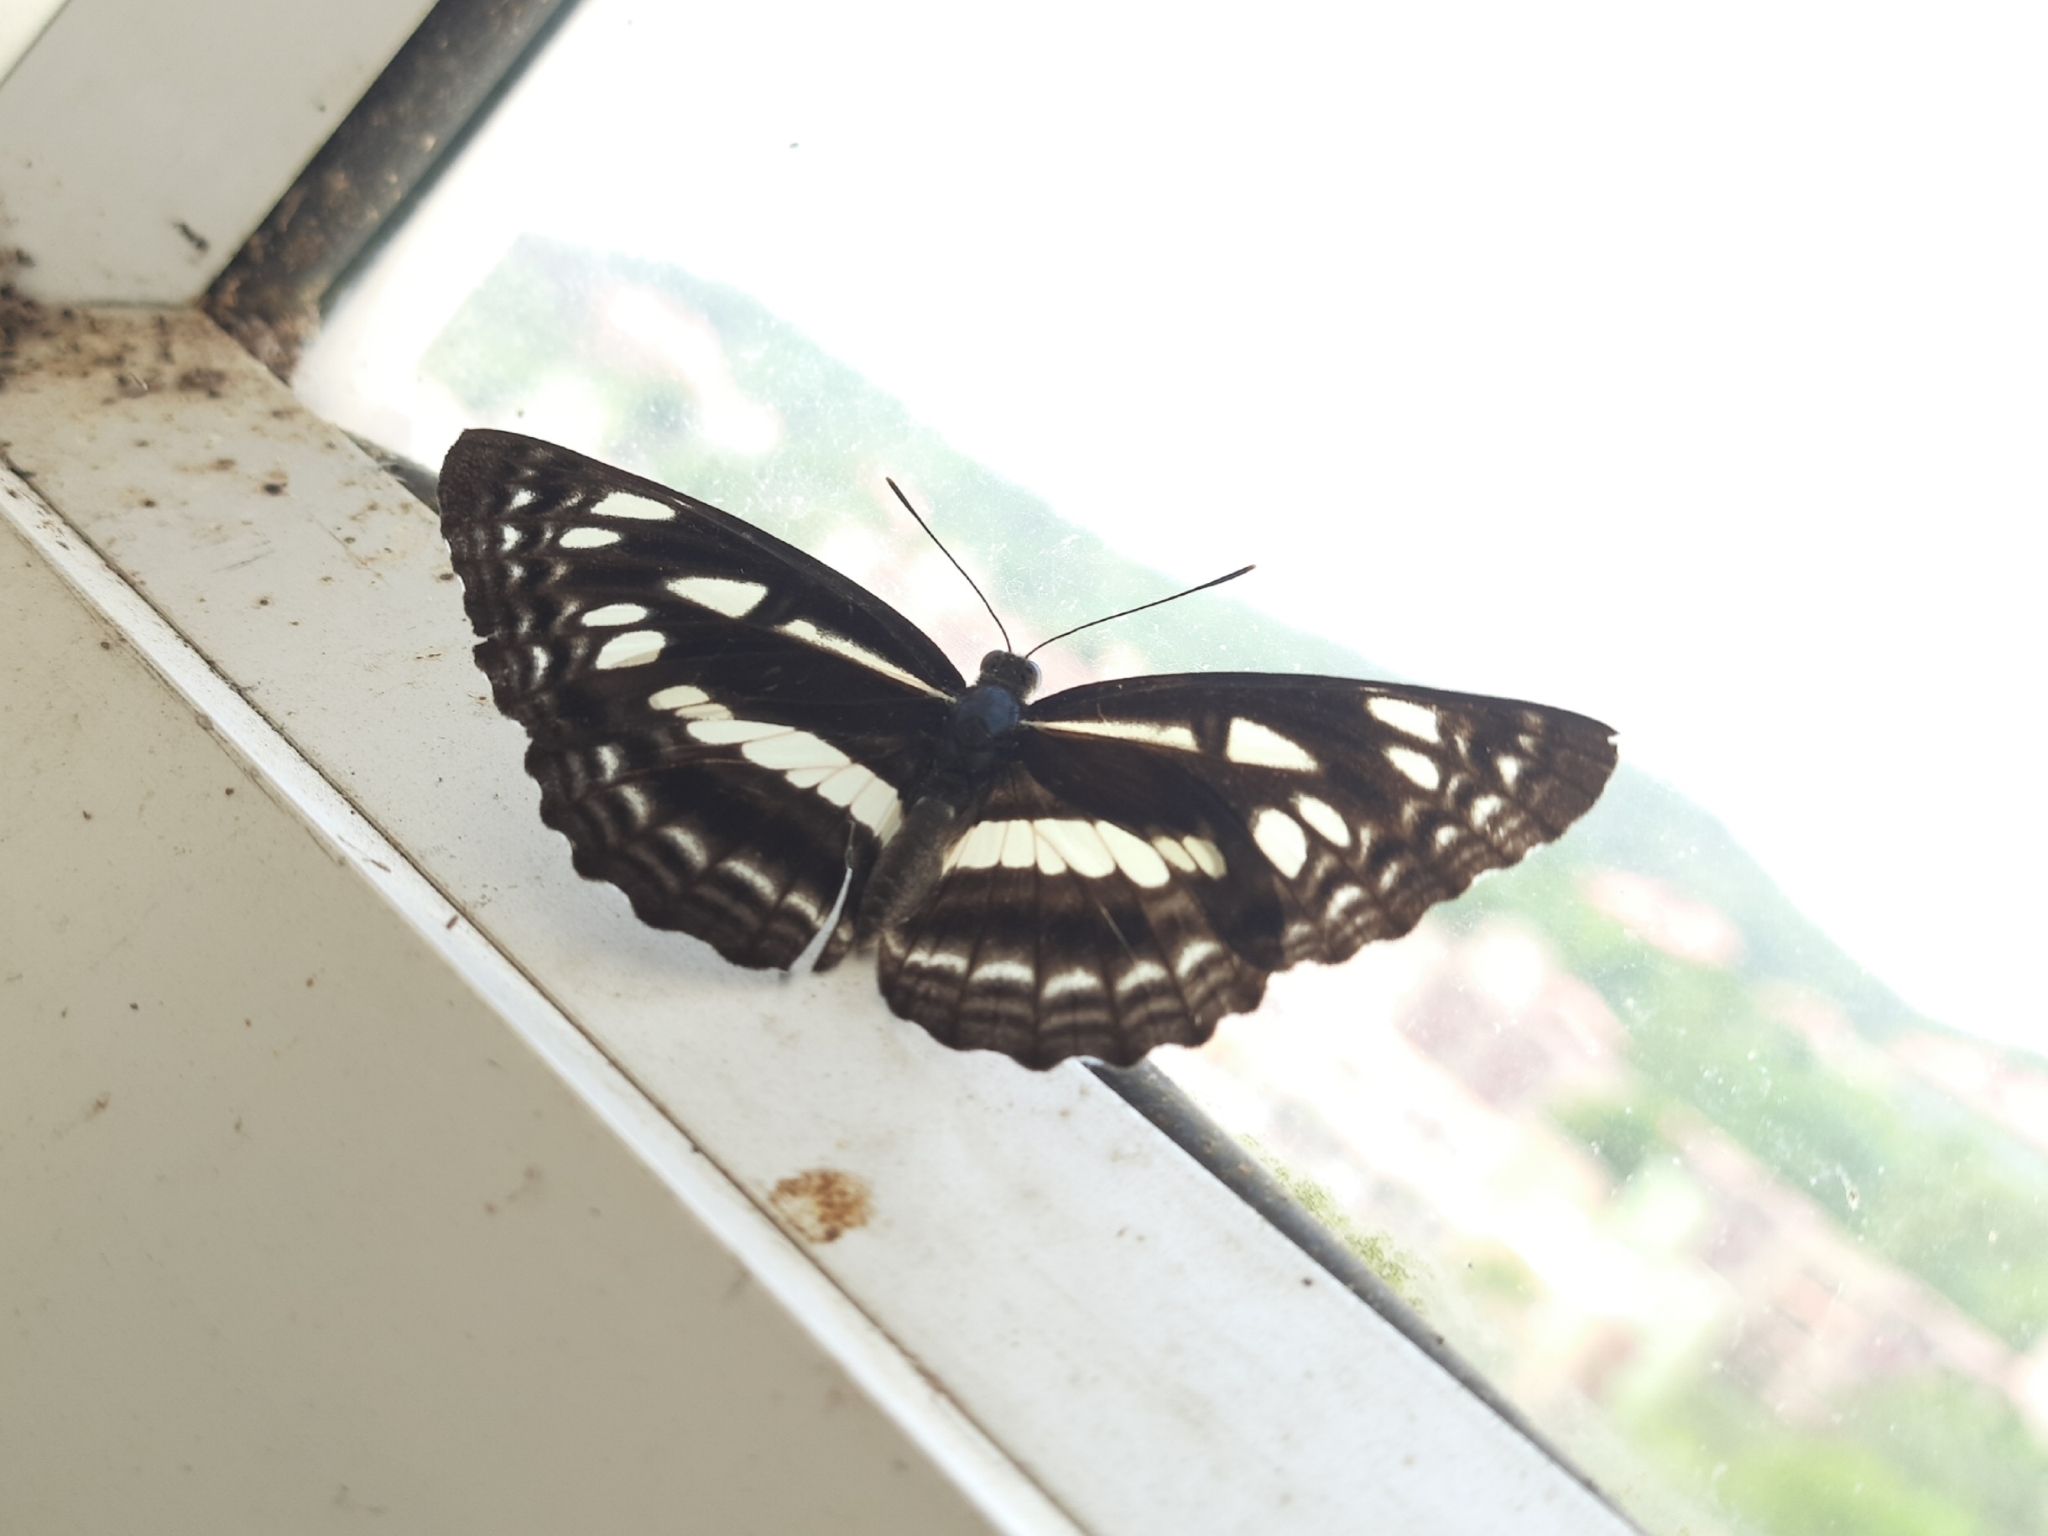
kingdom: Animalia
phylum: Arthropoda
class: Insecta
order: Lepidoptera
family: Nymphalidae
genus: Neptis
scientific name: Neptis jumbah
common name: Chestnut-streaked sailer
